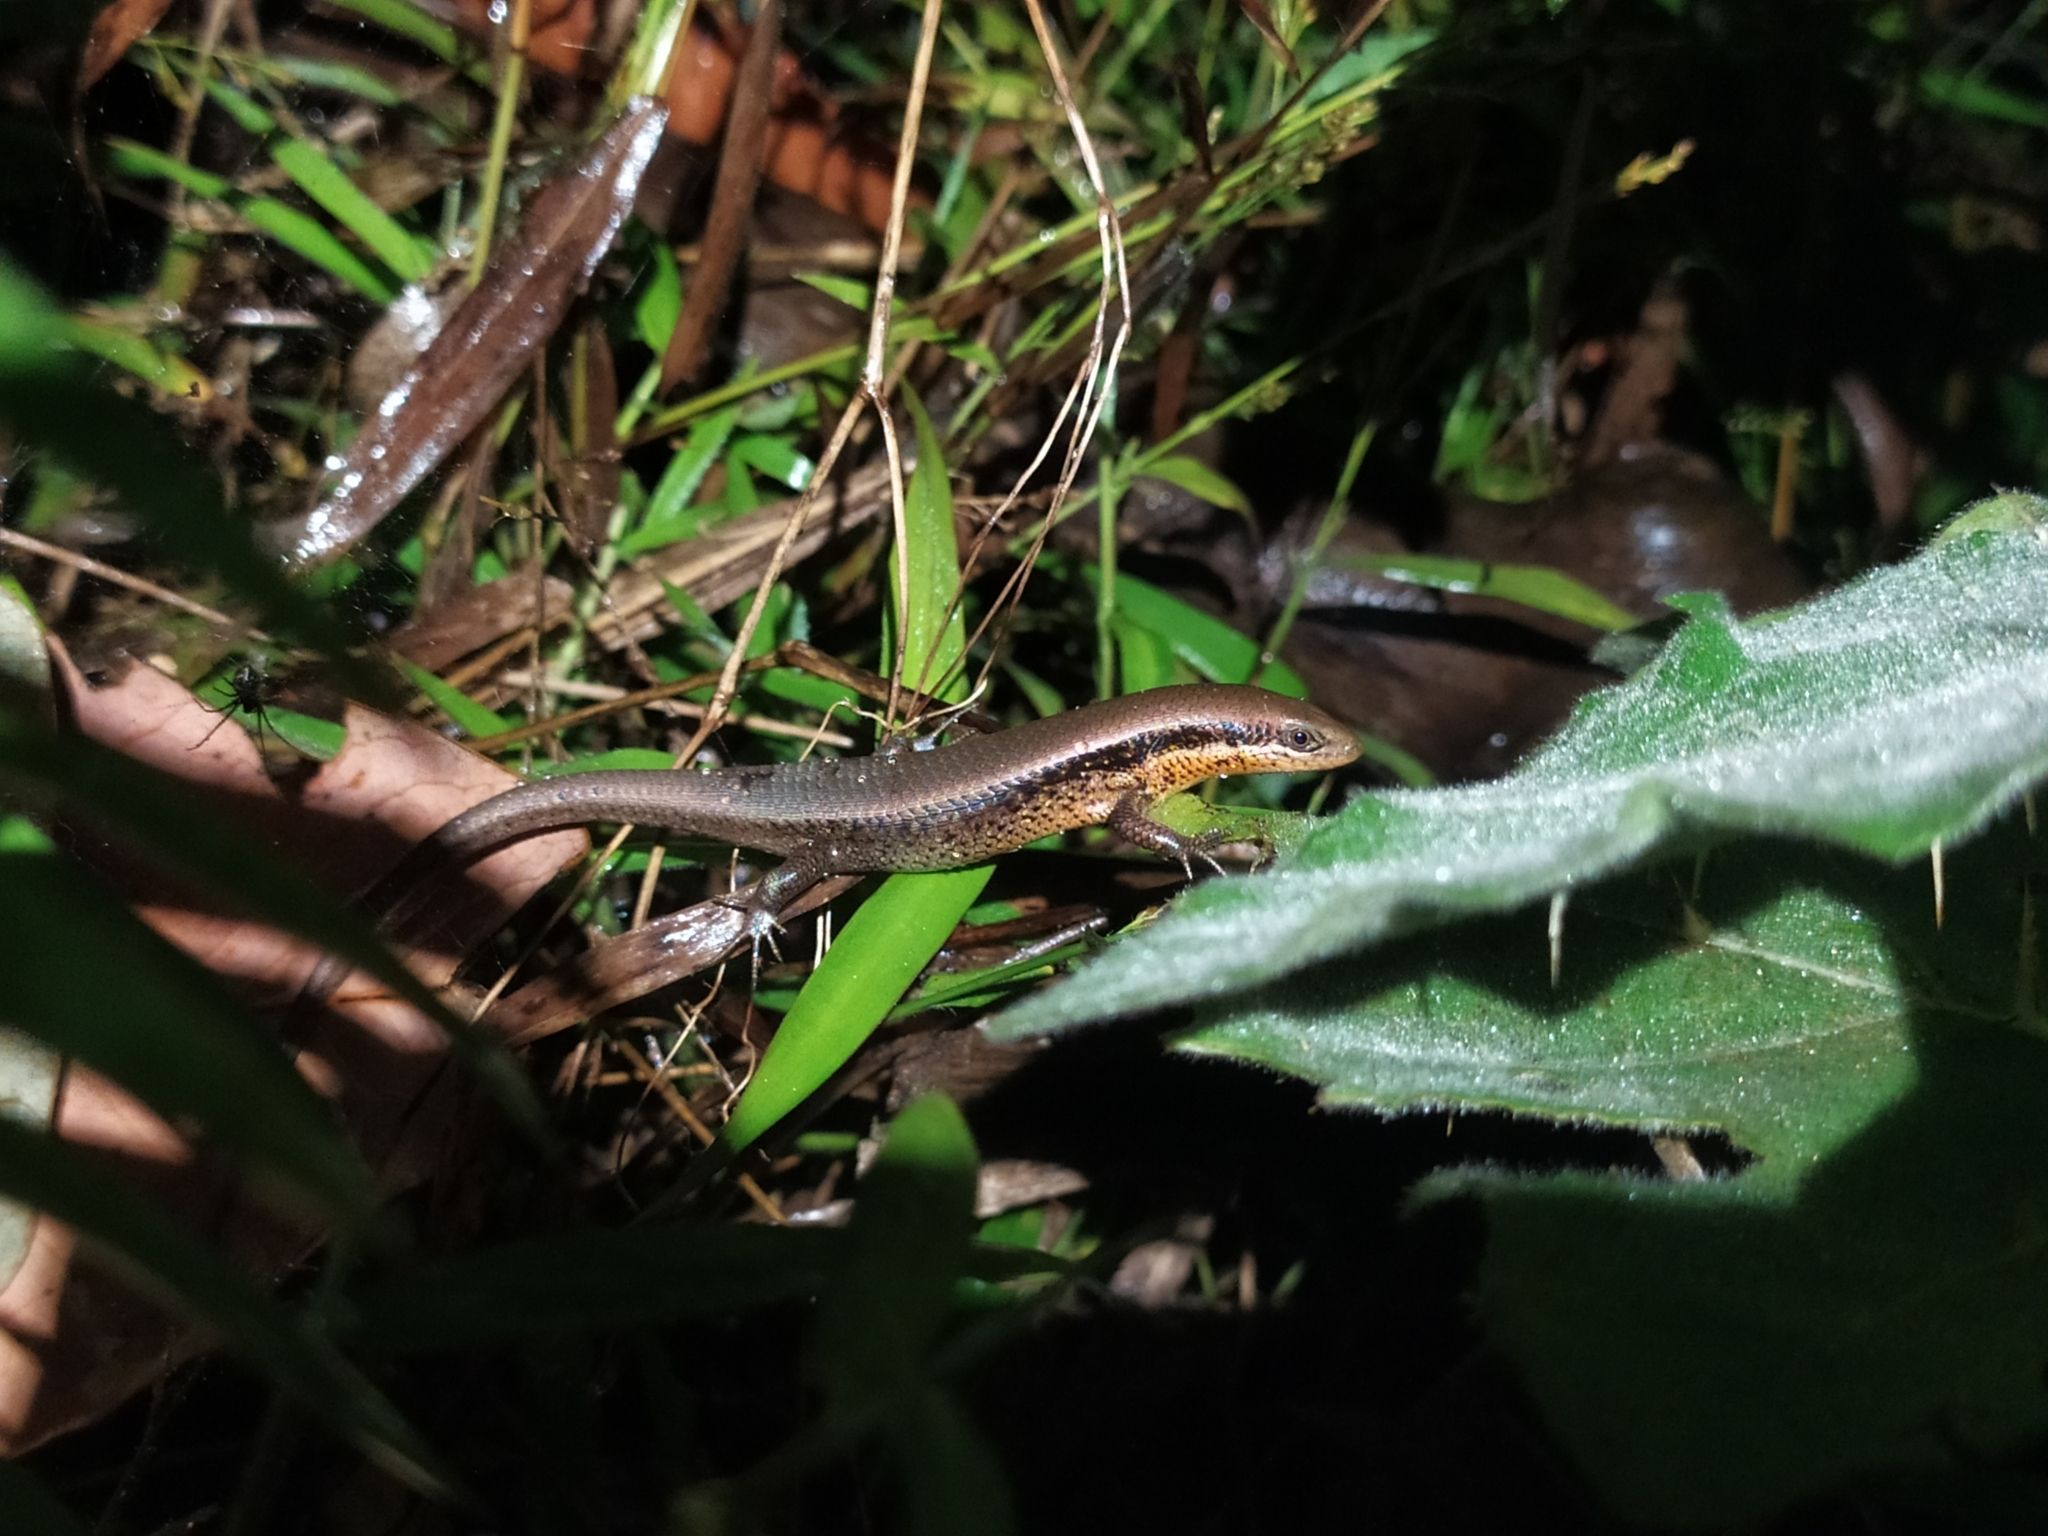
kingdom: Animalia
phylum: Chordata
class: Squamata
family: Scincidae
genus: Eutropis
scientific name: Eutropis macularia
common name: Bronze mabuya
